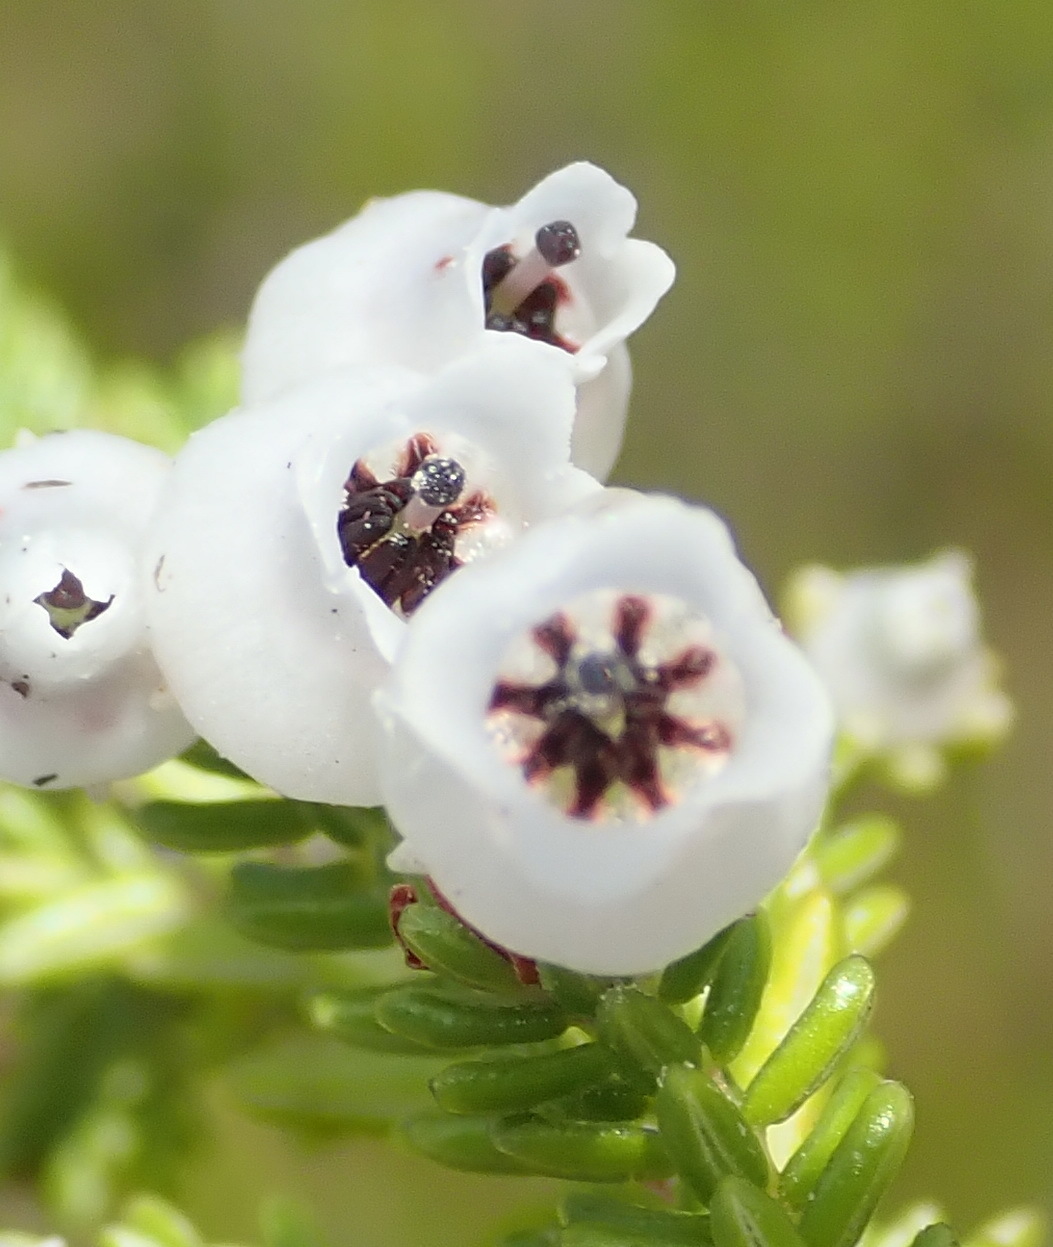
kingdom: Plantae
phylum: Tracheophyta
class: Magnoliopsida
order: Ericales
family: Ericaceae
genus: Erica
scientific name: Erica glomiflora
